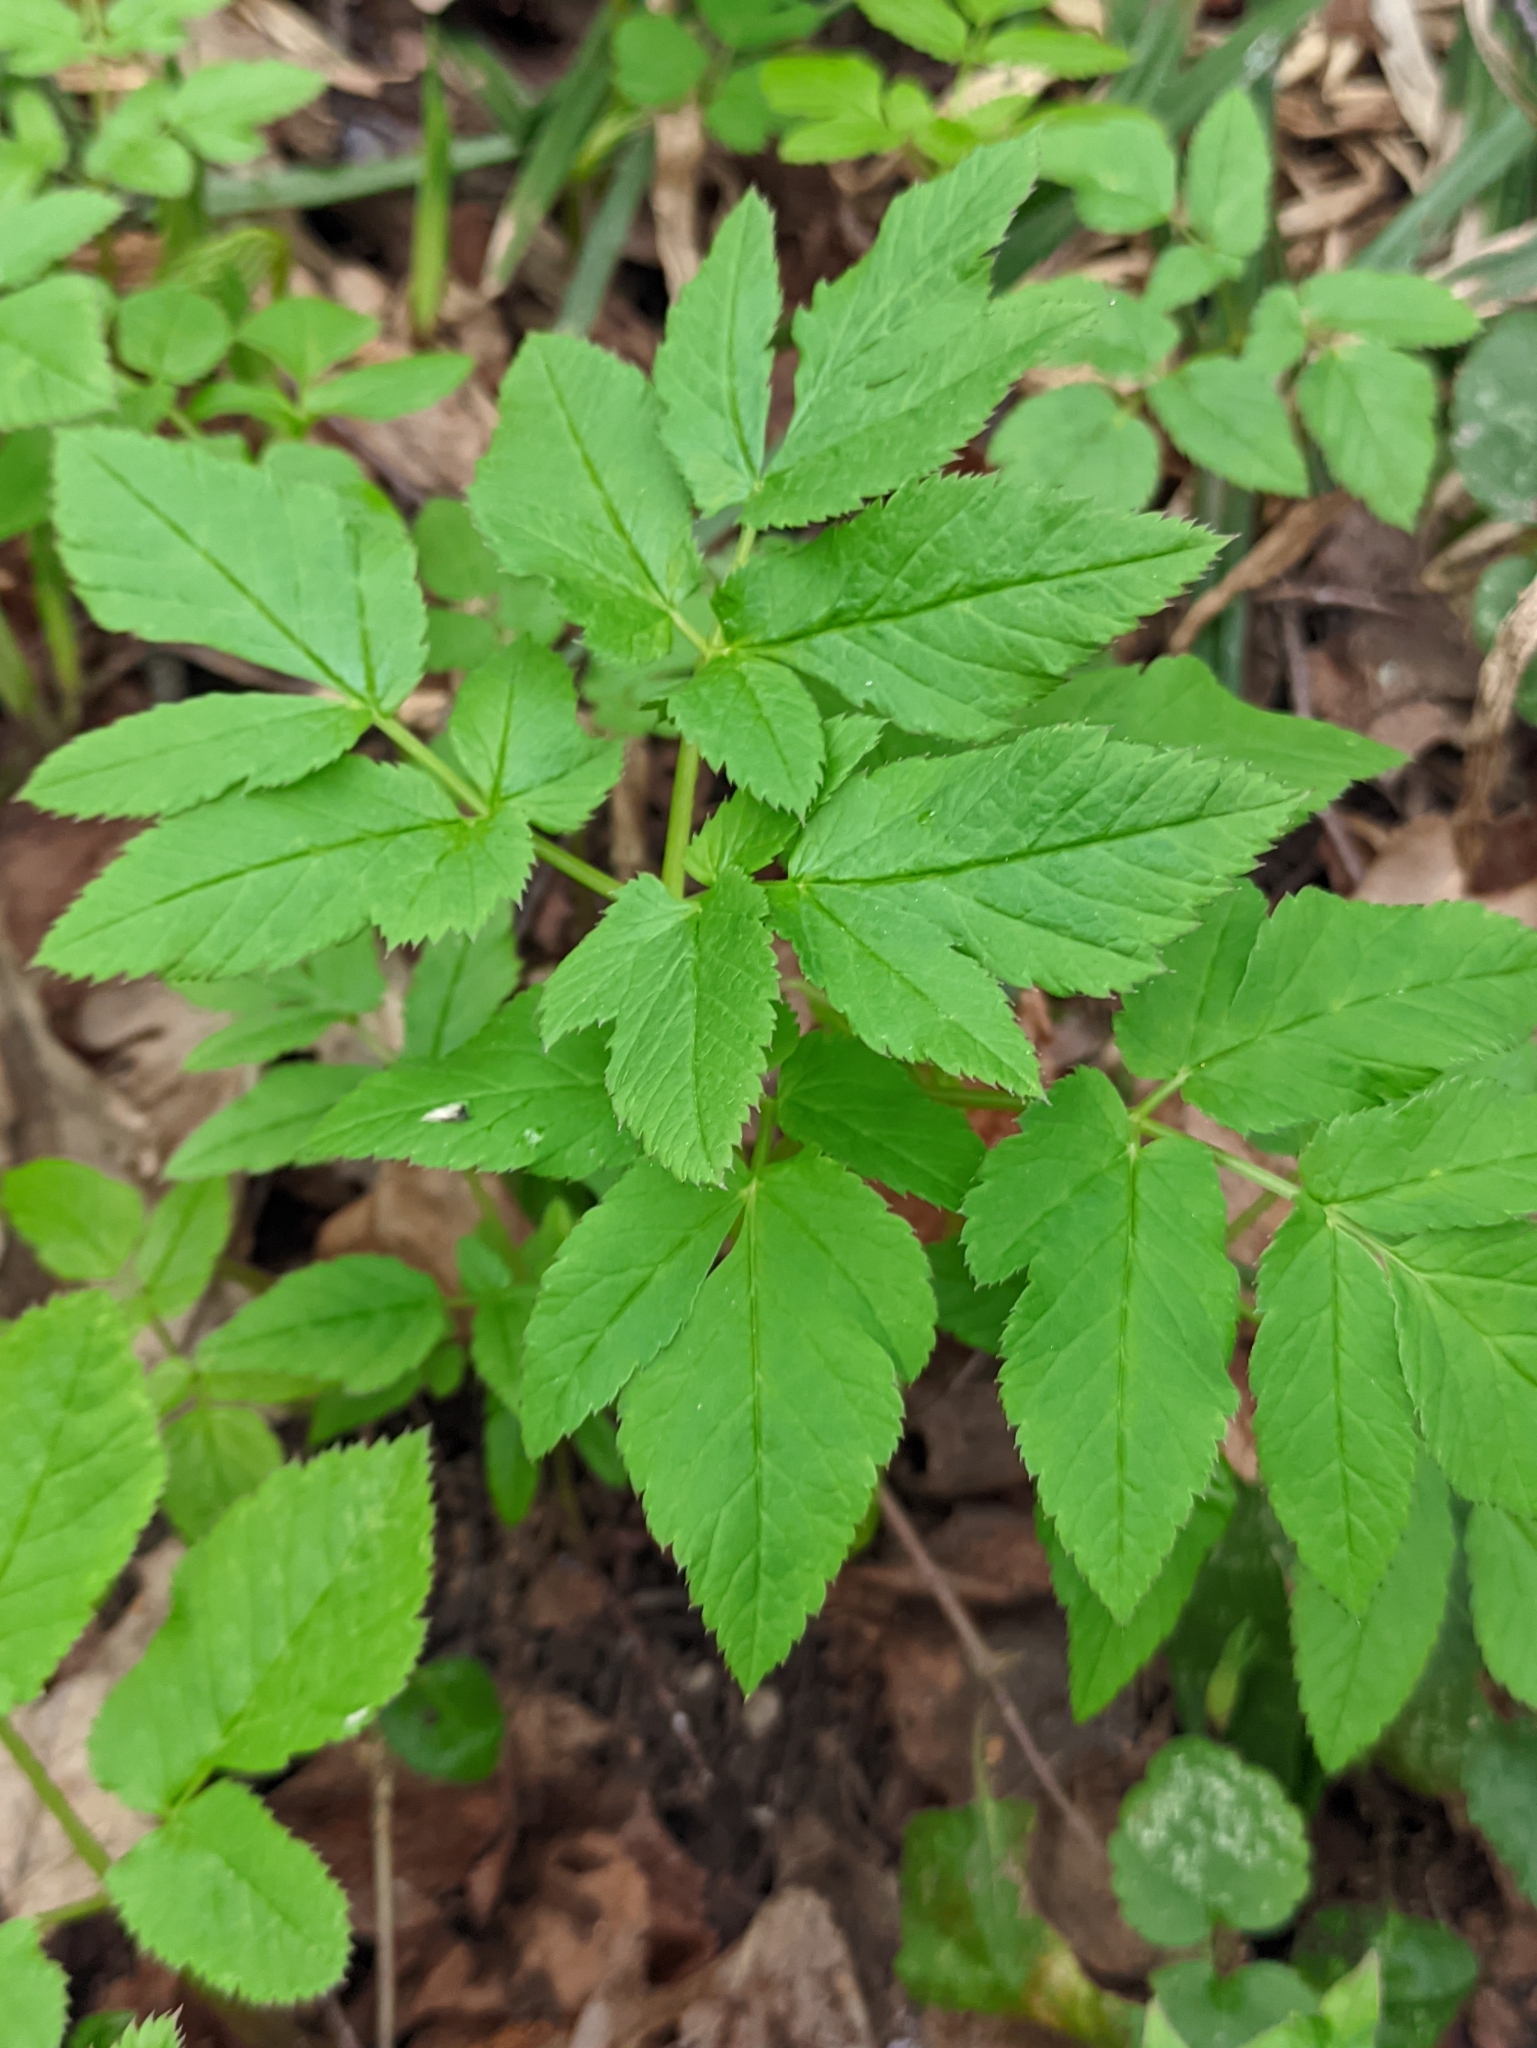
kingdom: Plantae
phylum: Tracheophyta
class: Magnoliopsida
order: Apiales
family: Apiaceae
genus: Aegopodium
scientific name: Aegopodium podagraria
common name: Ground-elder
